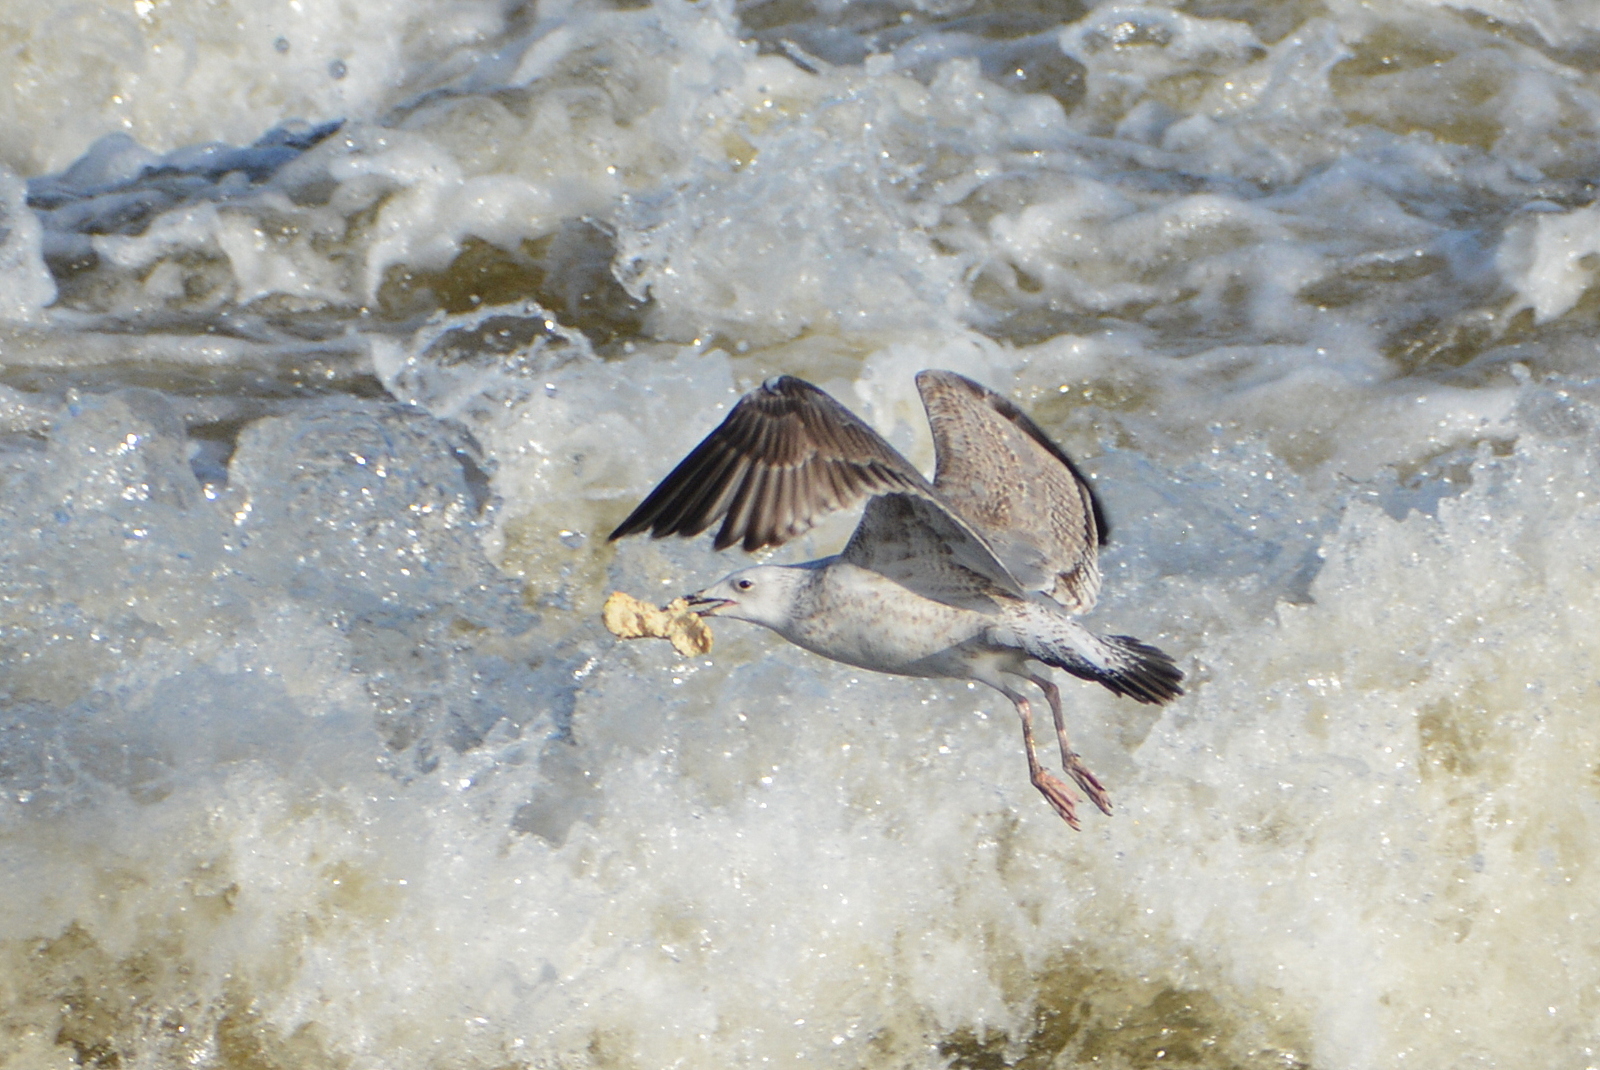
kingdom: Animalia
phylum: Chordata
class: Aves
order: Charadriiformes
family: Laridae
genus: Larus
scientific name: Larus cachinnans
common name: Caspian gull
